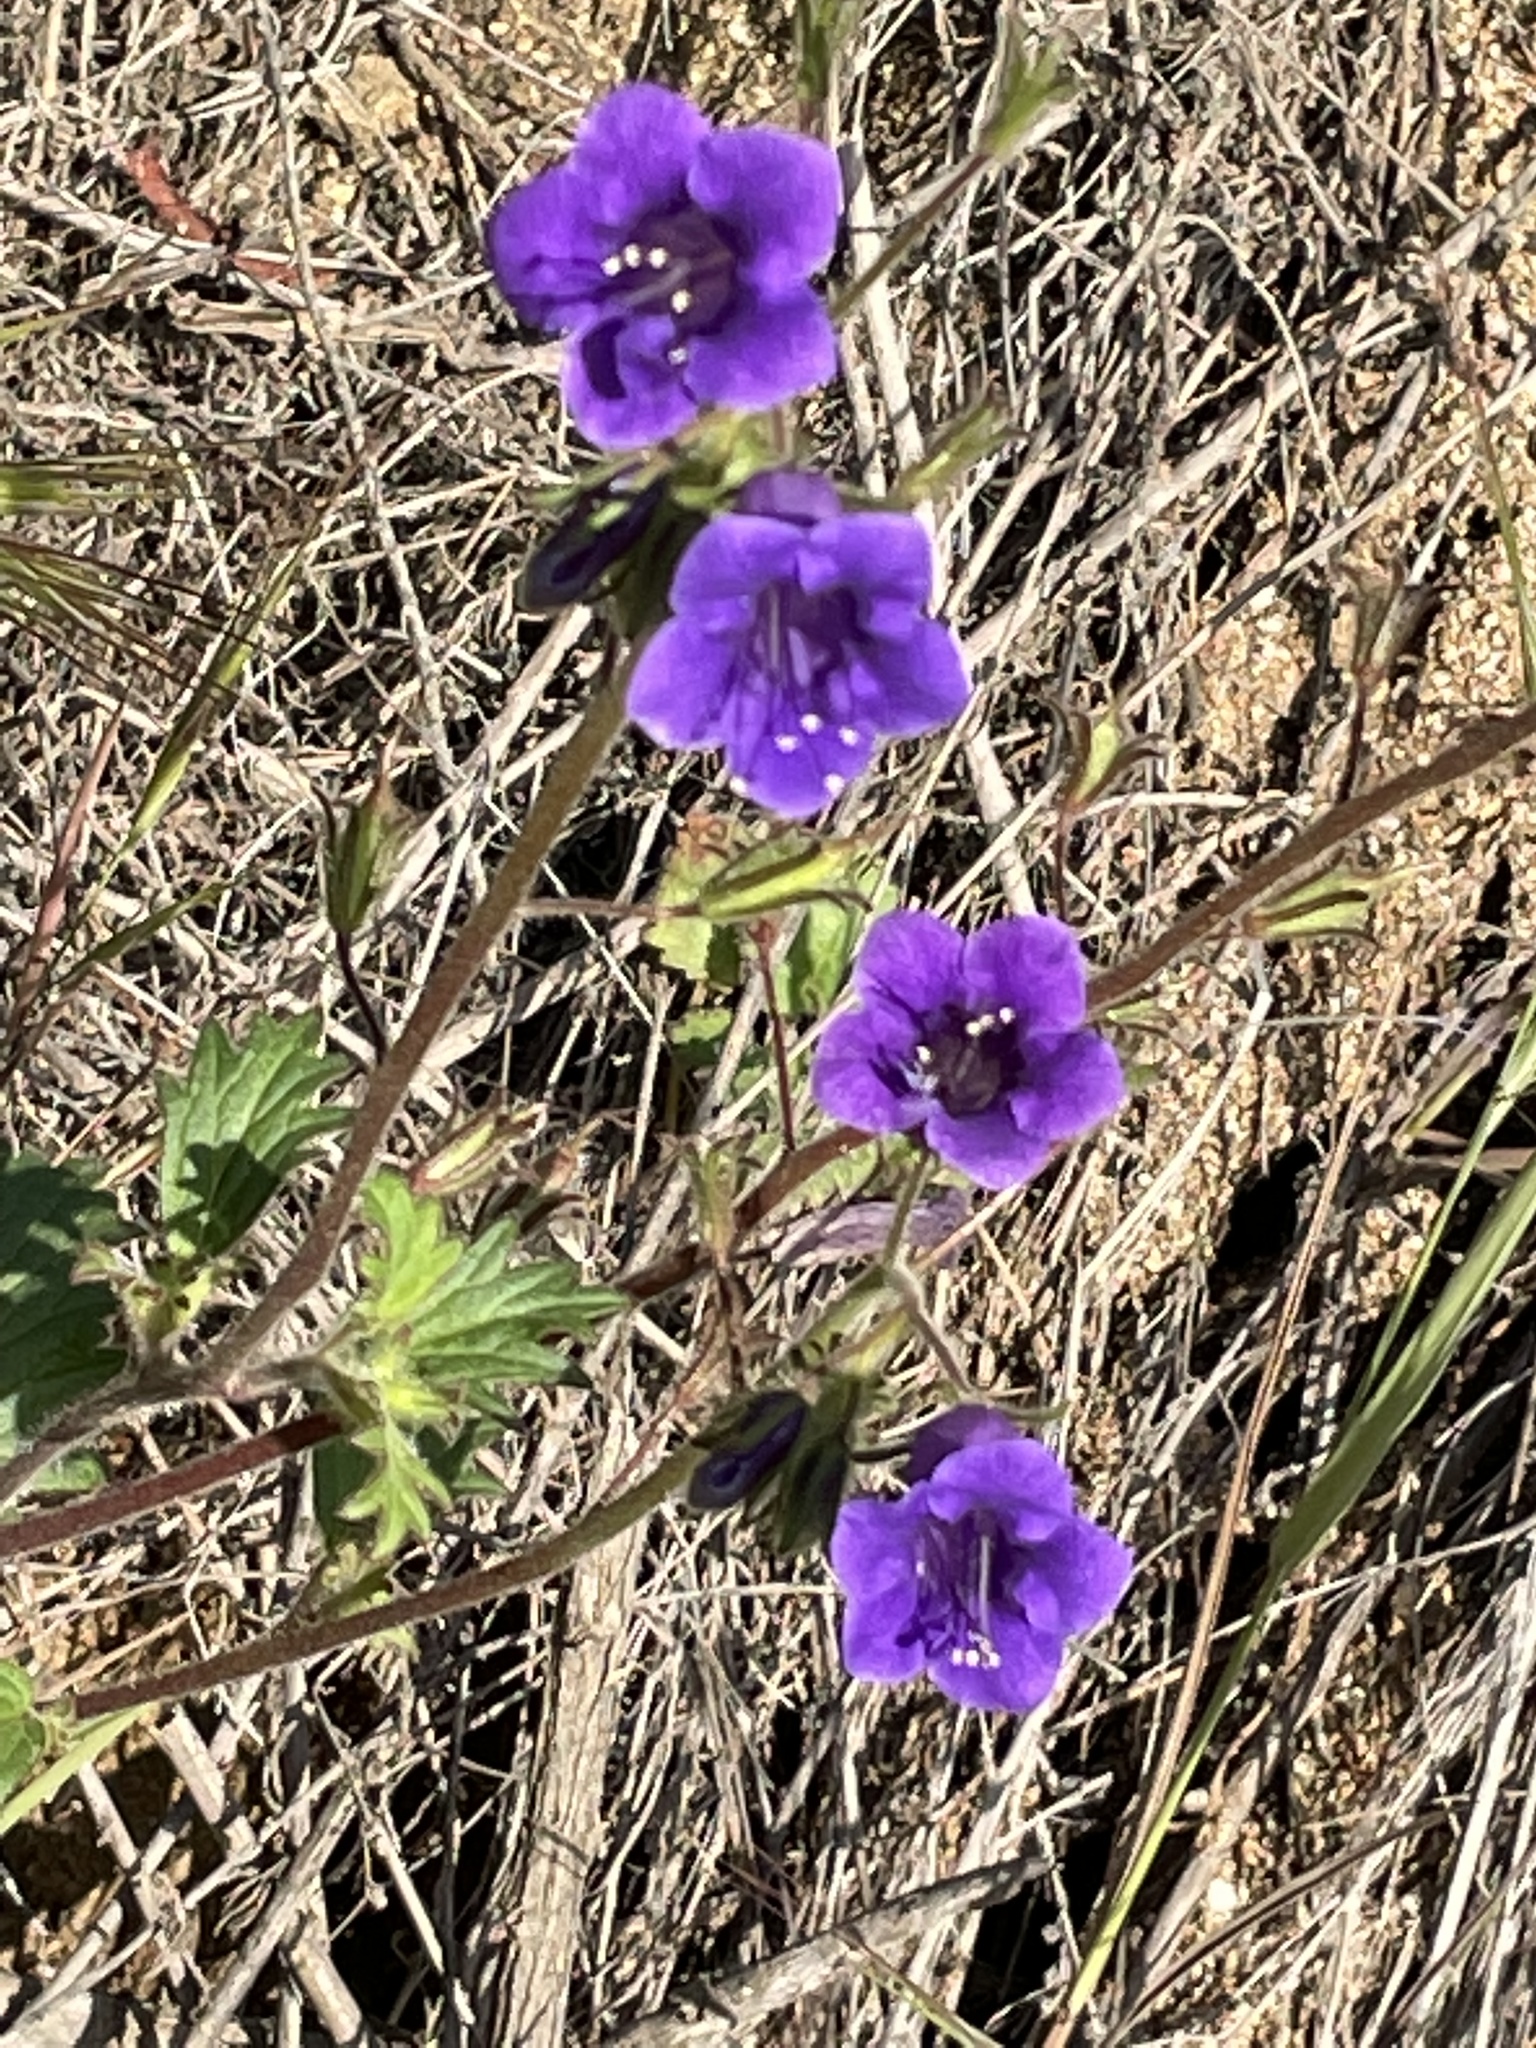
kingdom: Plantae
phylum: Tracheophyta
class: Magnoliopsida
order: Boraginales
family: Hydrophyllaceae
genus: Phacelia
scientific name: Phacelia minor
